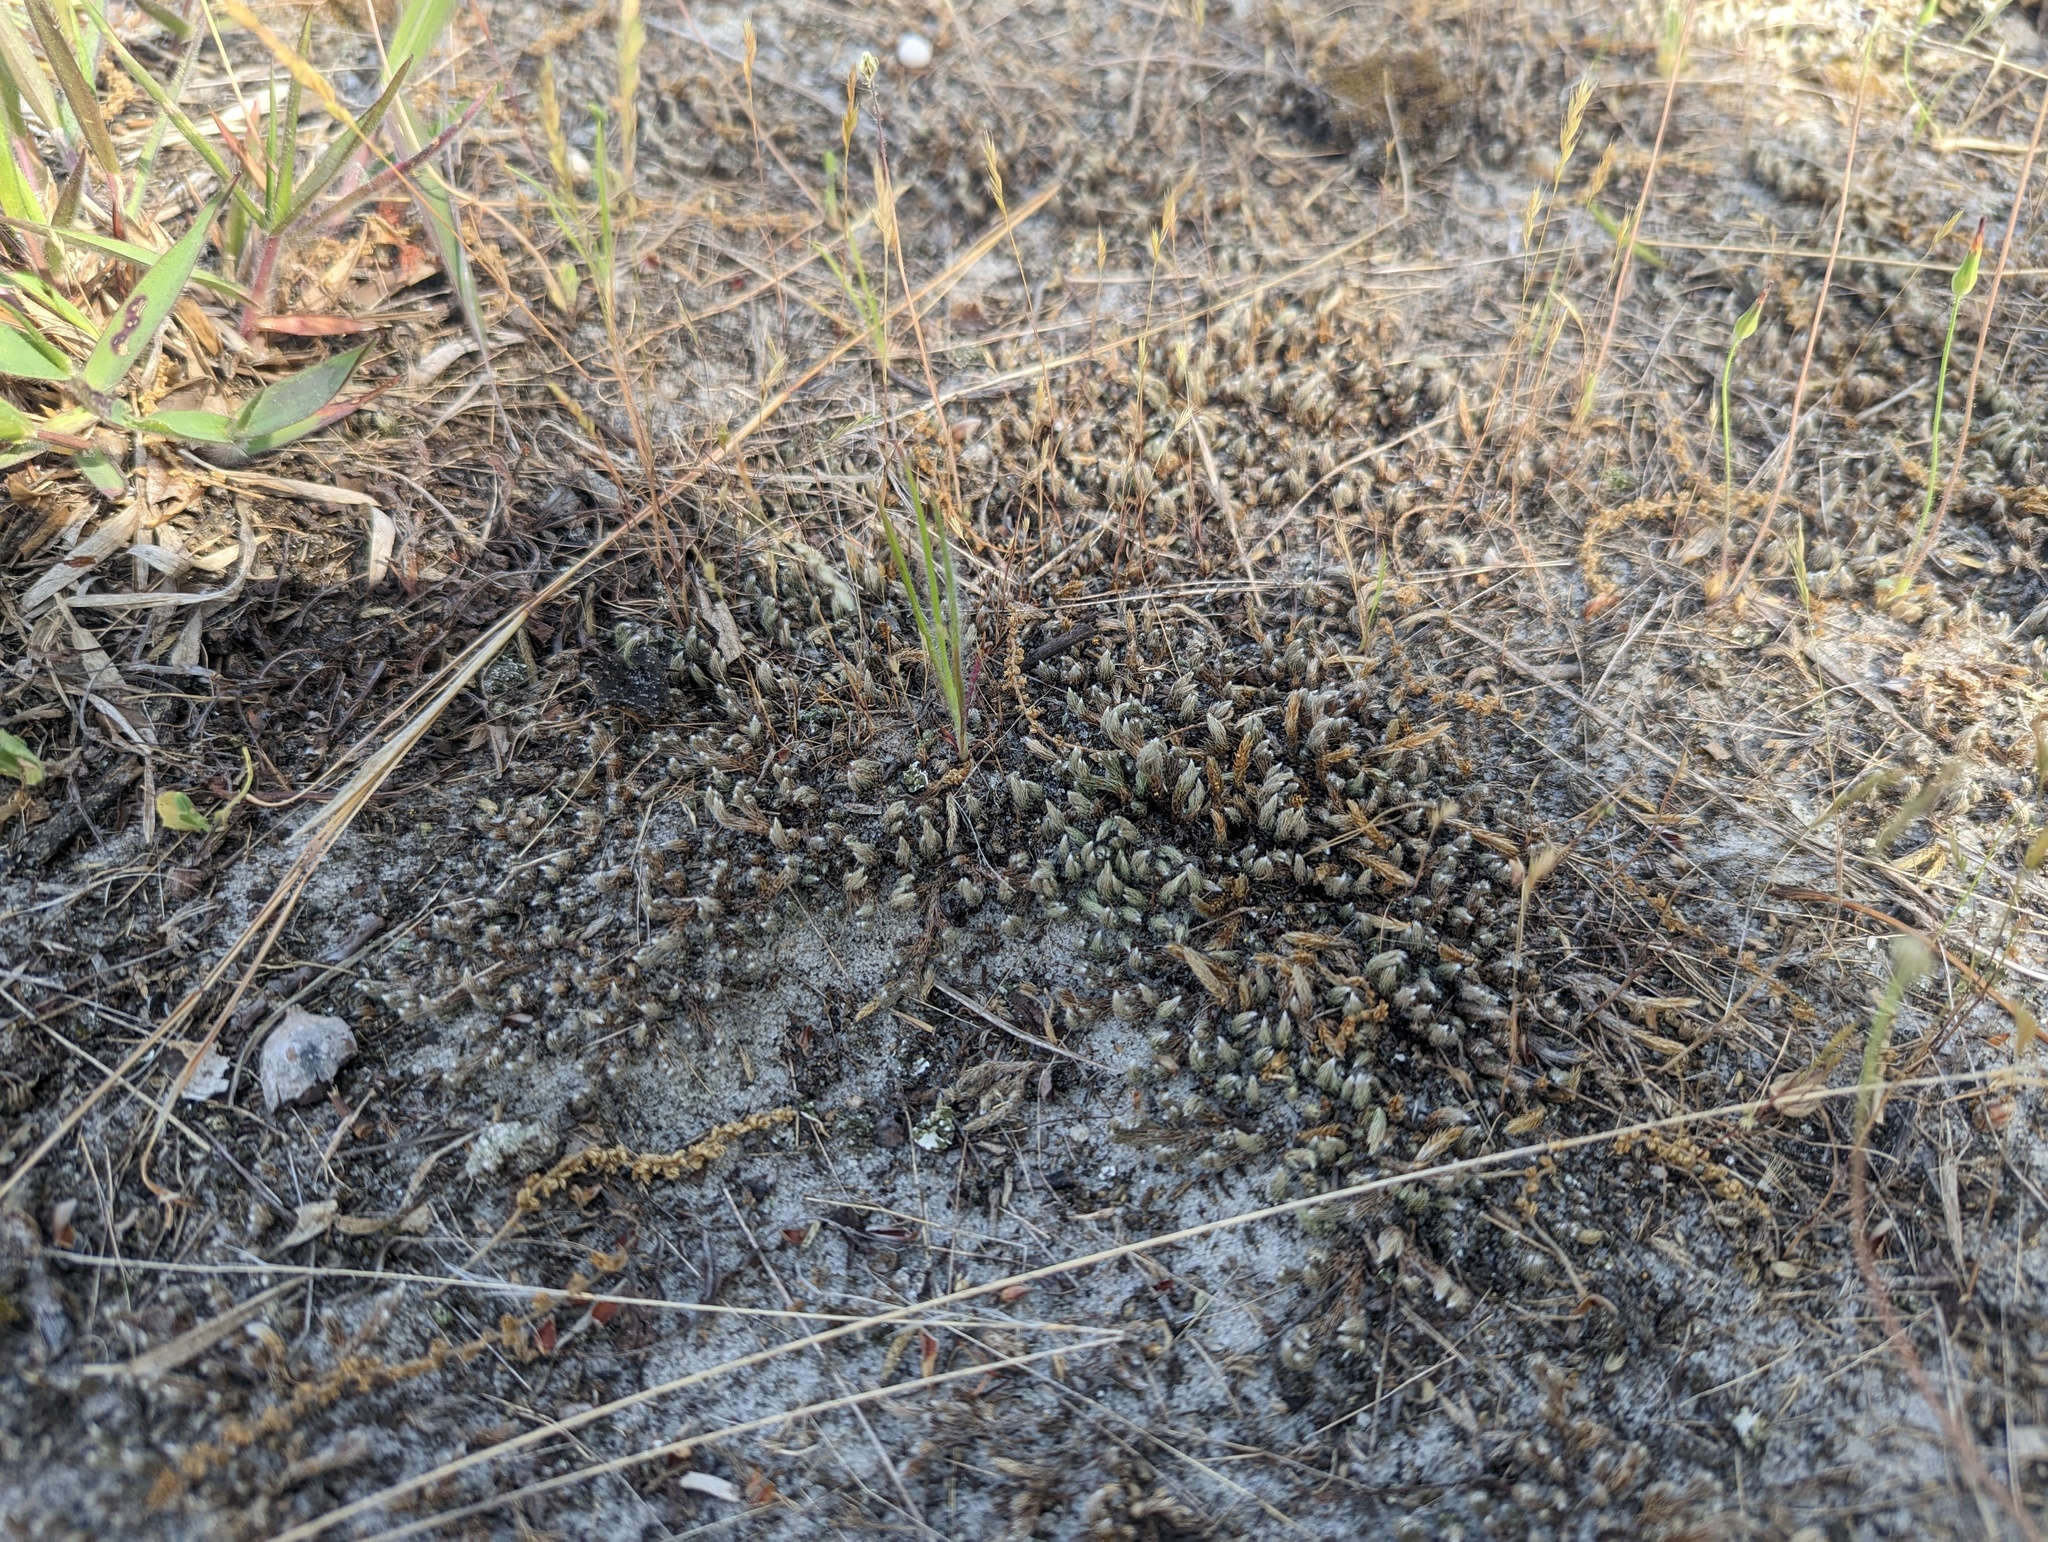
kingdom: Plantae
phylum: Tracheophyta
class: Lycopodiopsida
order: Selaginellales
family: Selaginellaceae
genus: Selaginella
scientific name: Selaginella rupestris
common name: Dwarf spikemoss
